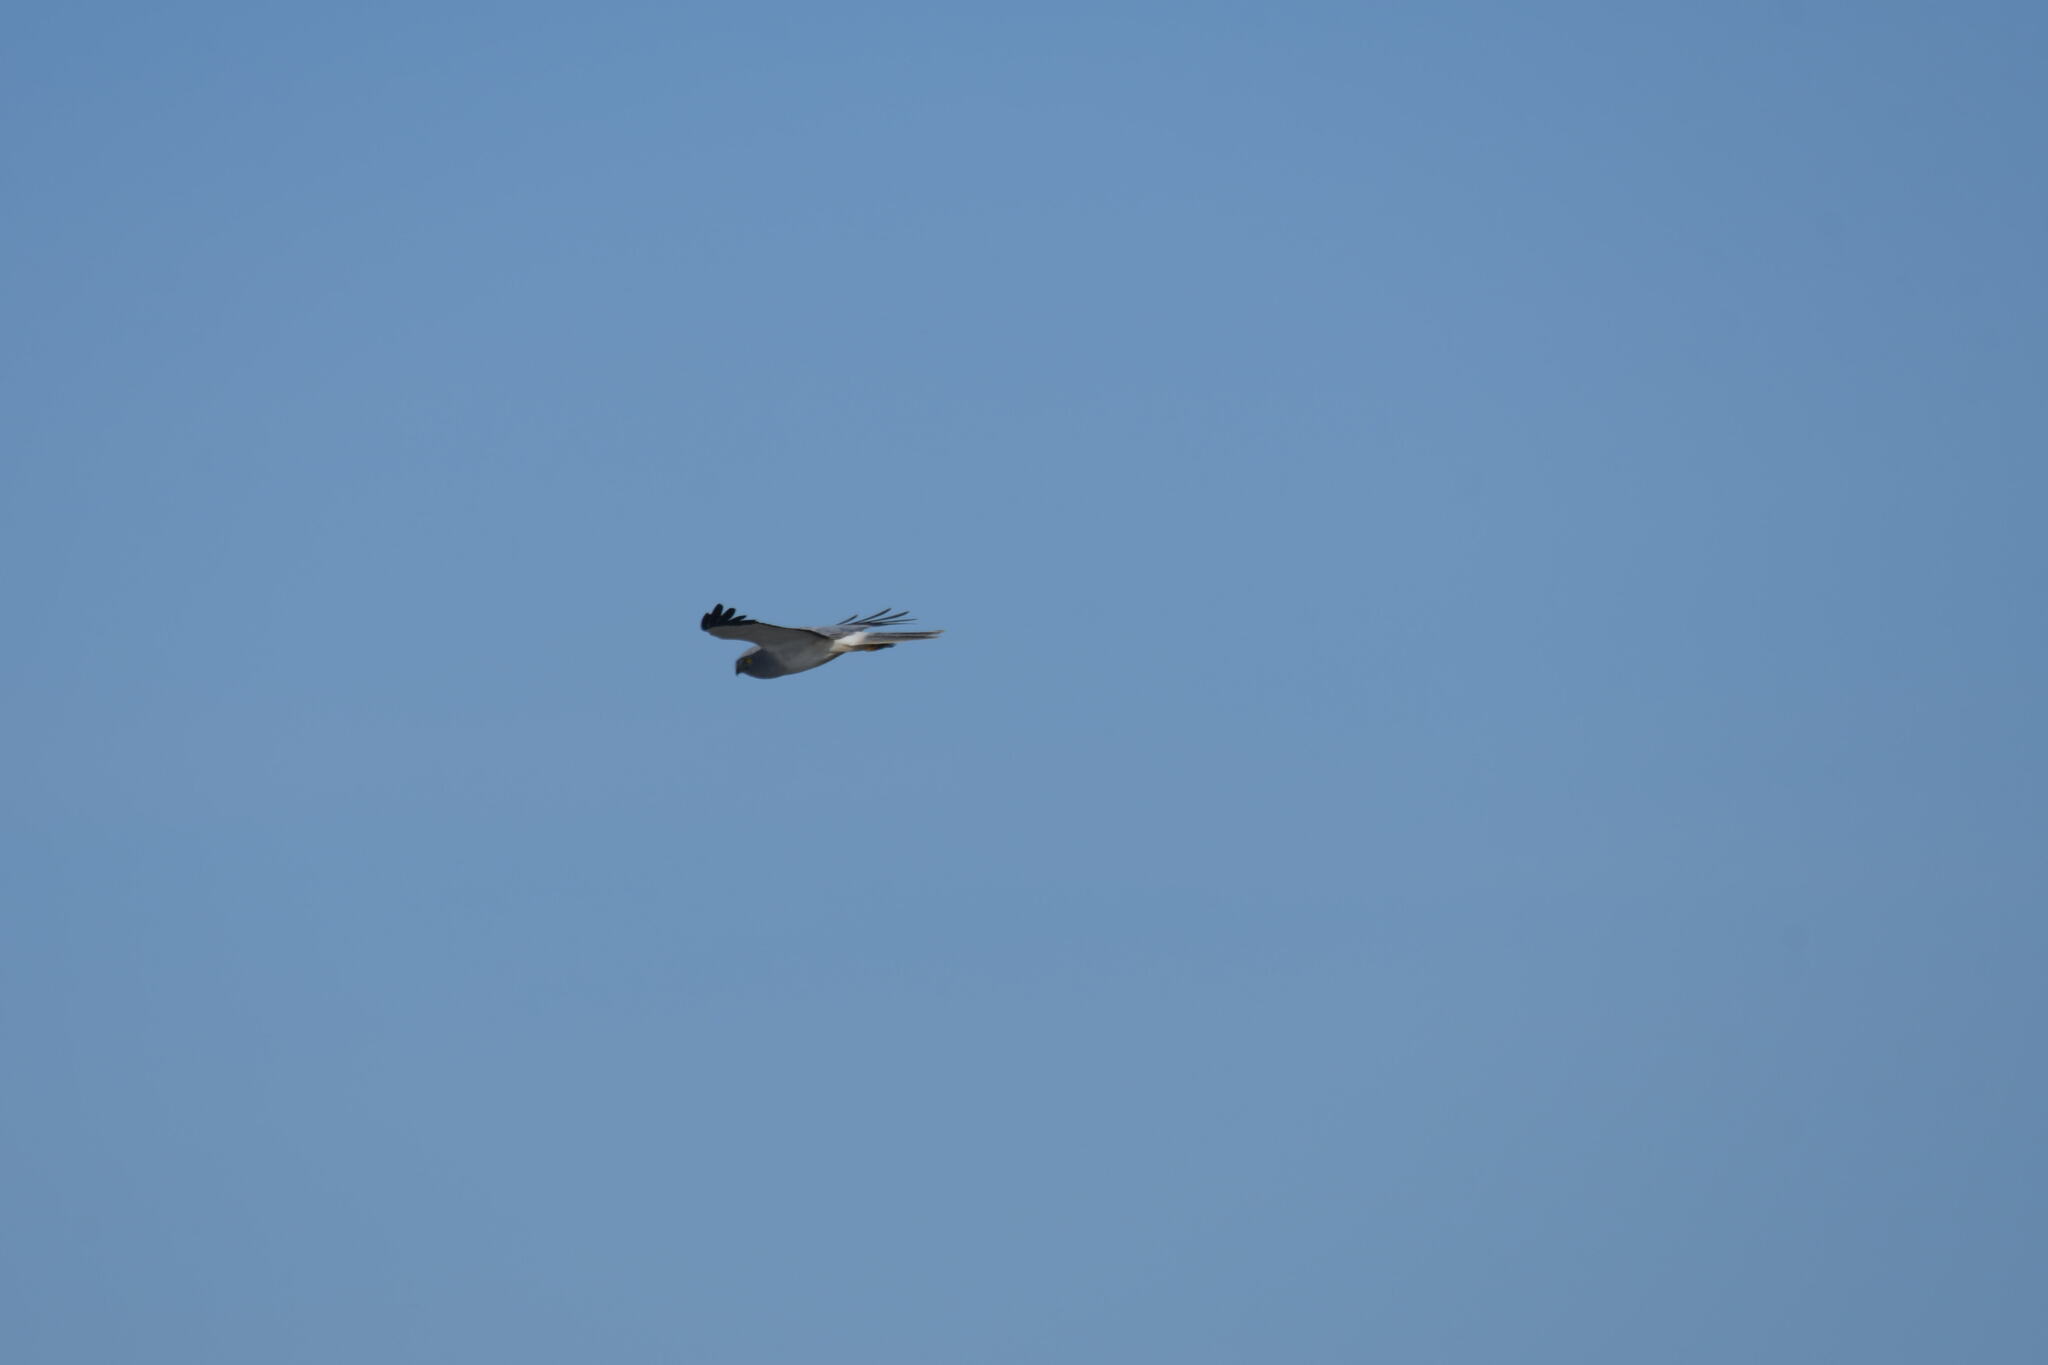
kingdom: Animalia
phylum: Chordata
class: Aves
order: Accipitriformes
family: Accipitridae
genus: Circus
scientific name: Circus cyaneus
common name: Hen harrier
